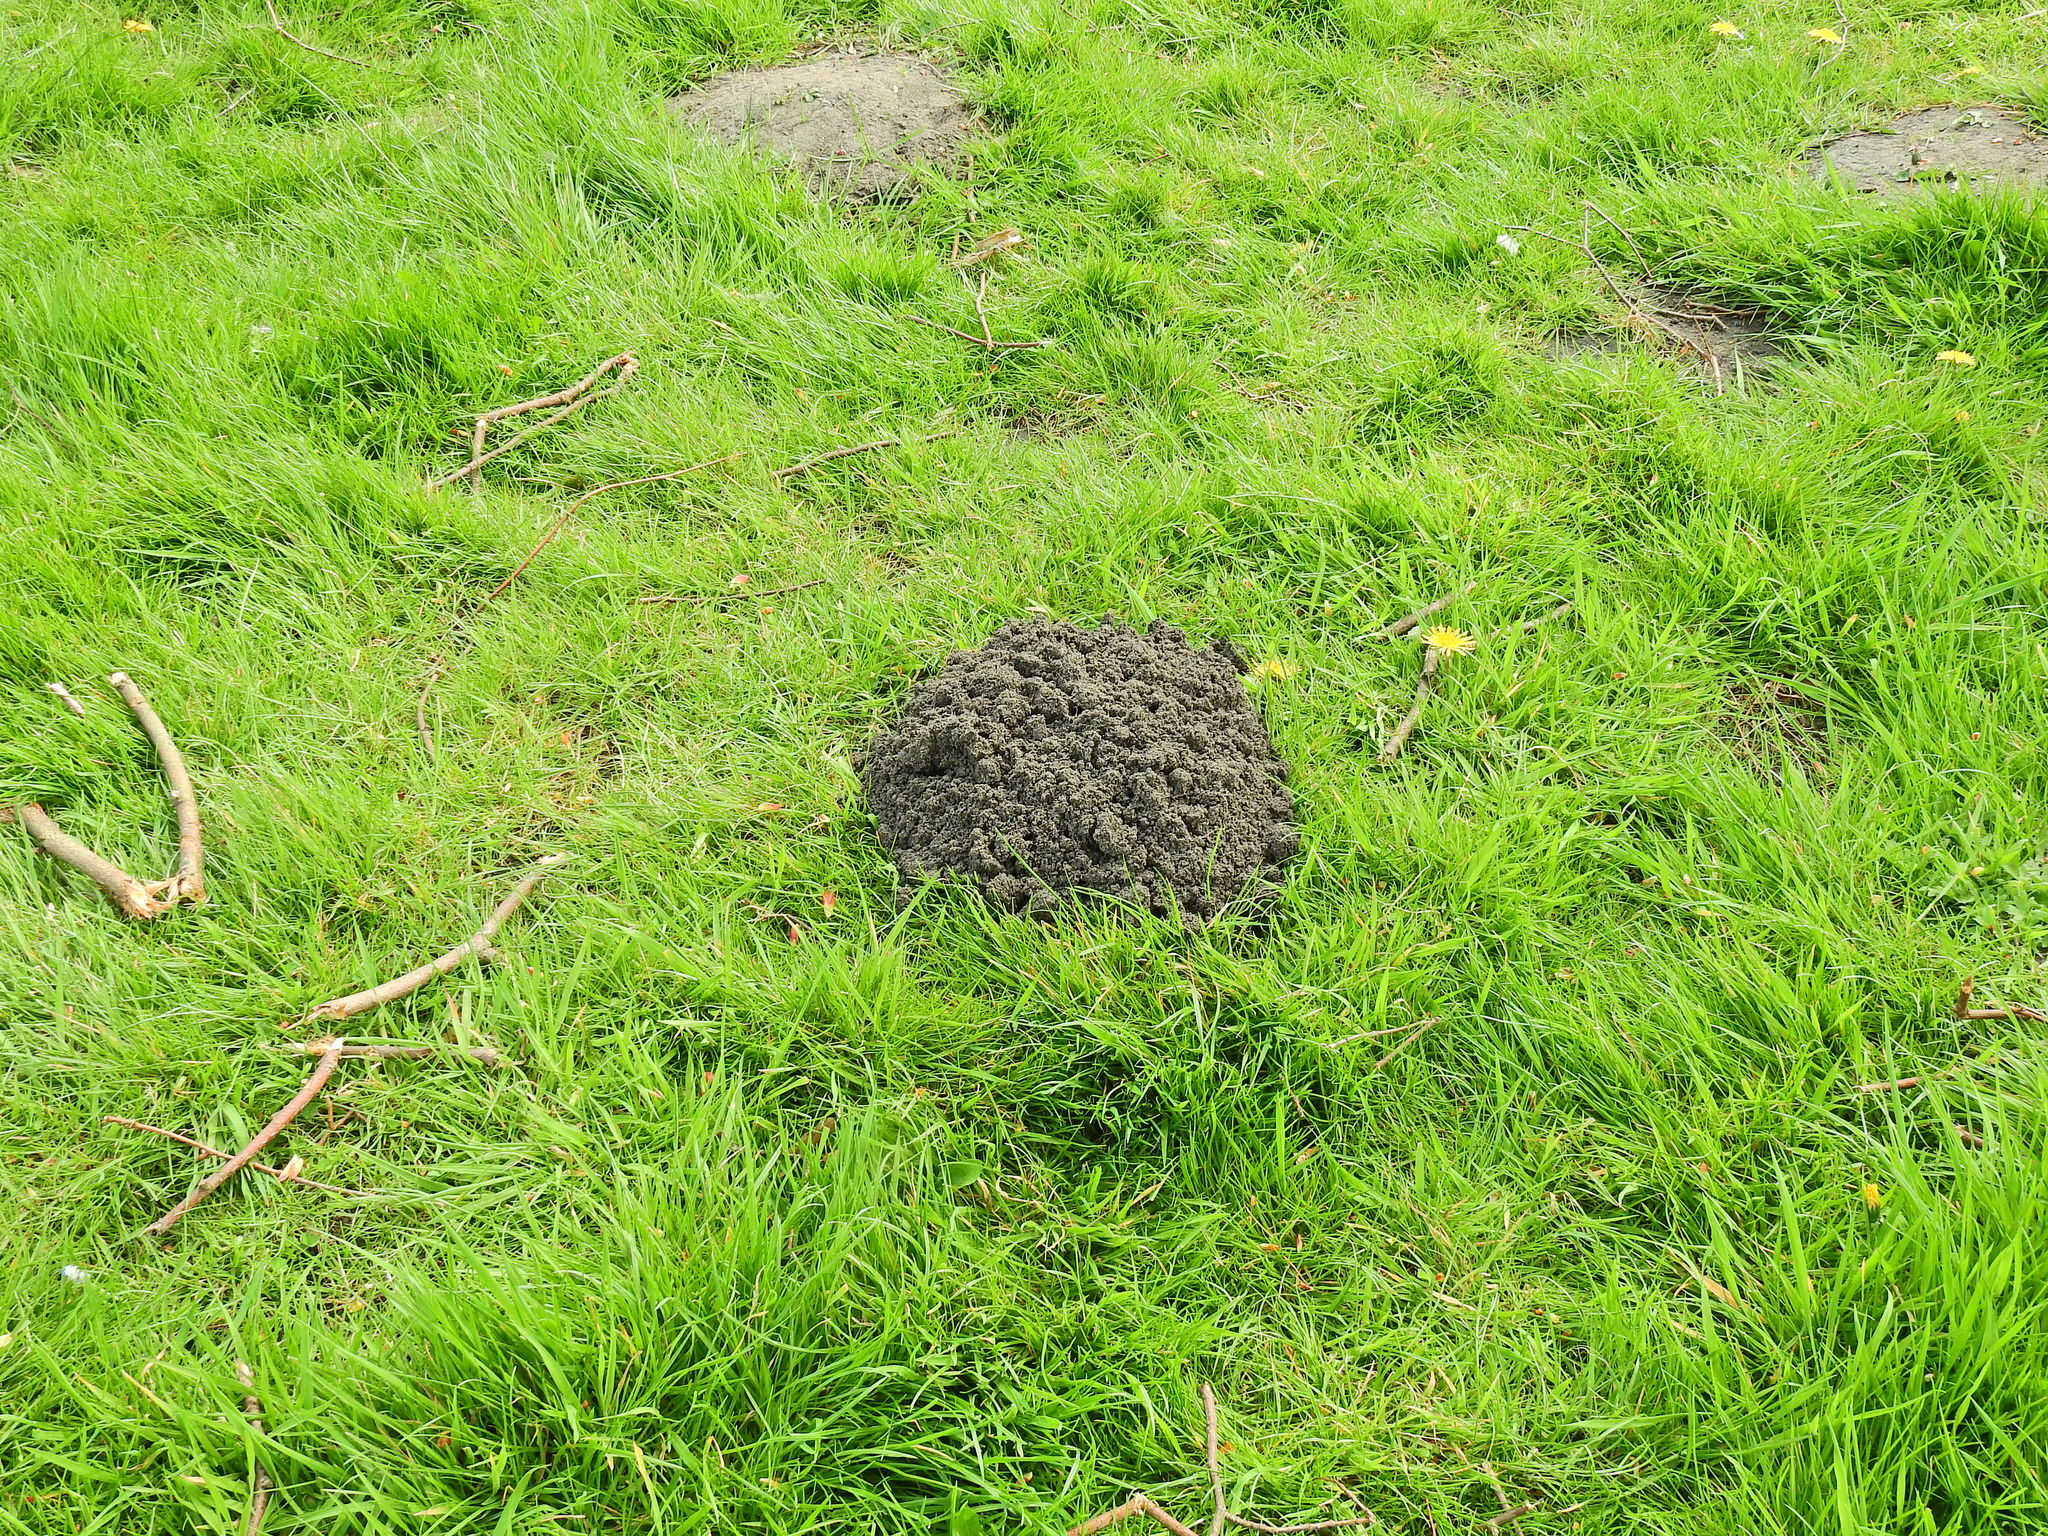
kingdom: Animalia
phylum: Chordata
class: Mammalia
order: Soricomorpha
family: Talpidae
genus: Talpa
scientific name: Talpa europaea
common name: European mole
